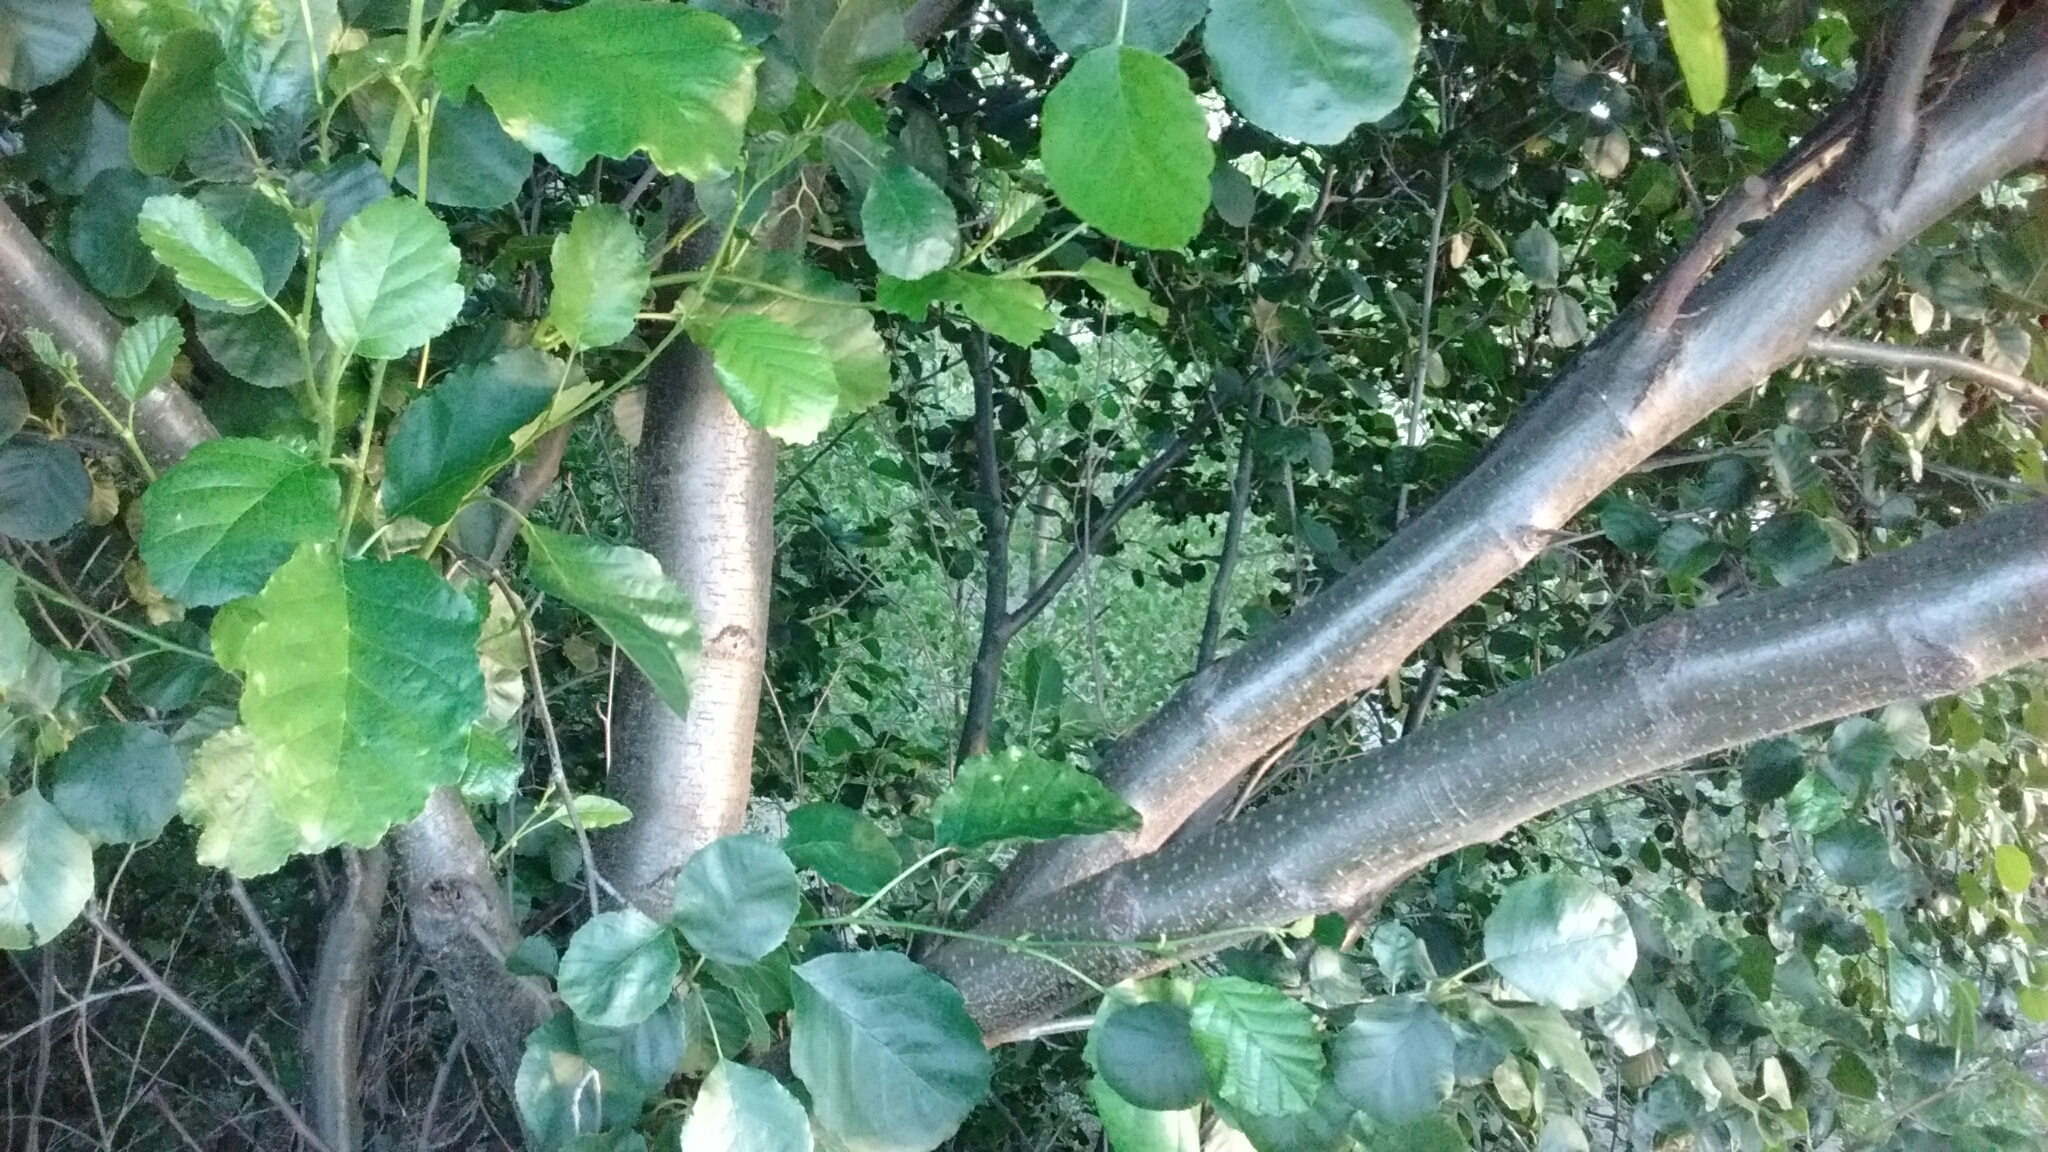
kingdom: Plantae
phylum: Tracheophyta
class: Magnoliopsida
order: Fagales
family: Betulaceae
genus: Alnus
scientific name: Alnus lusitanica
